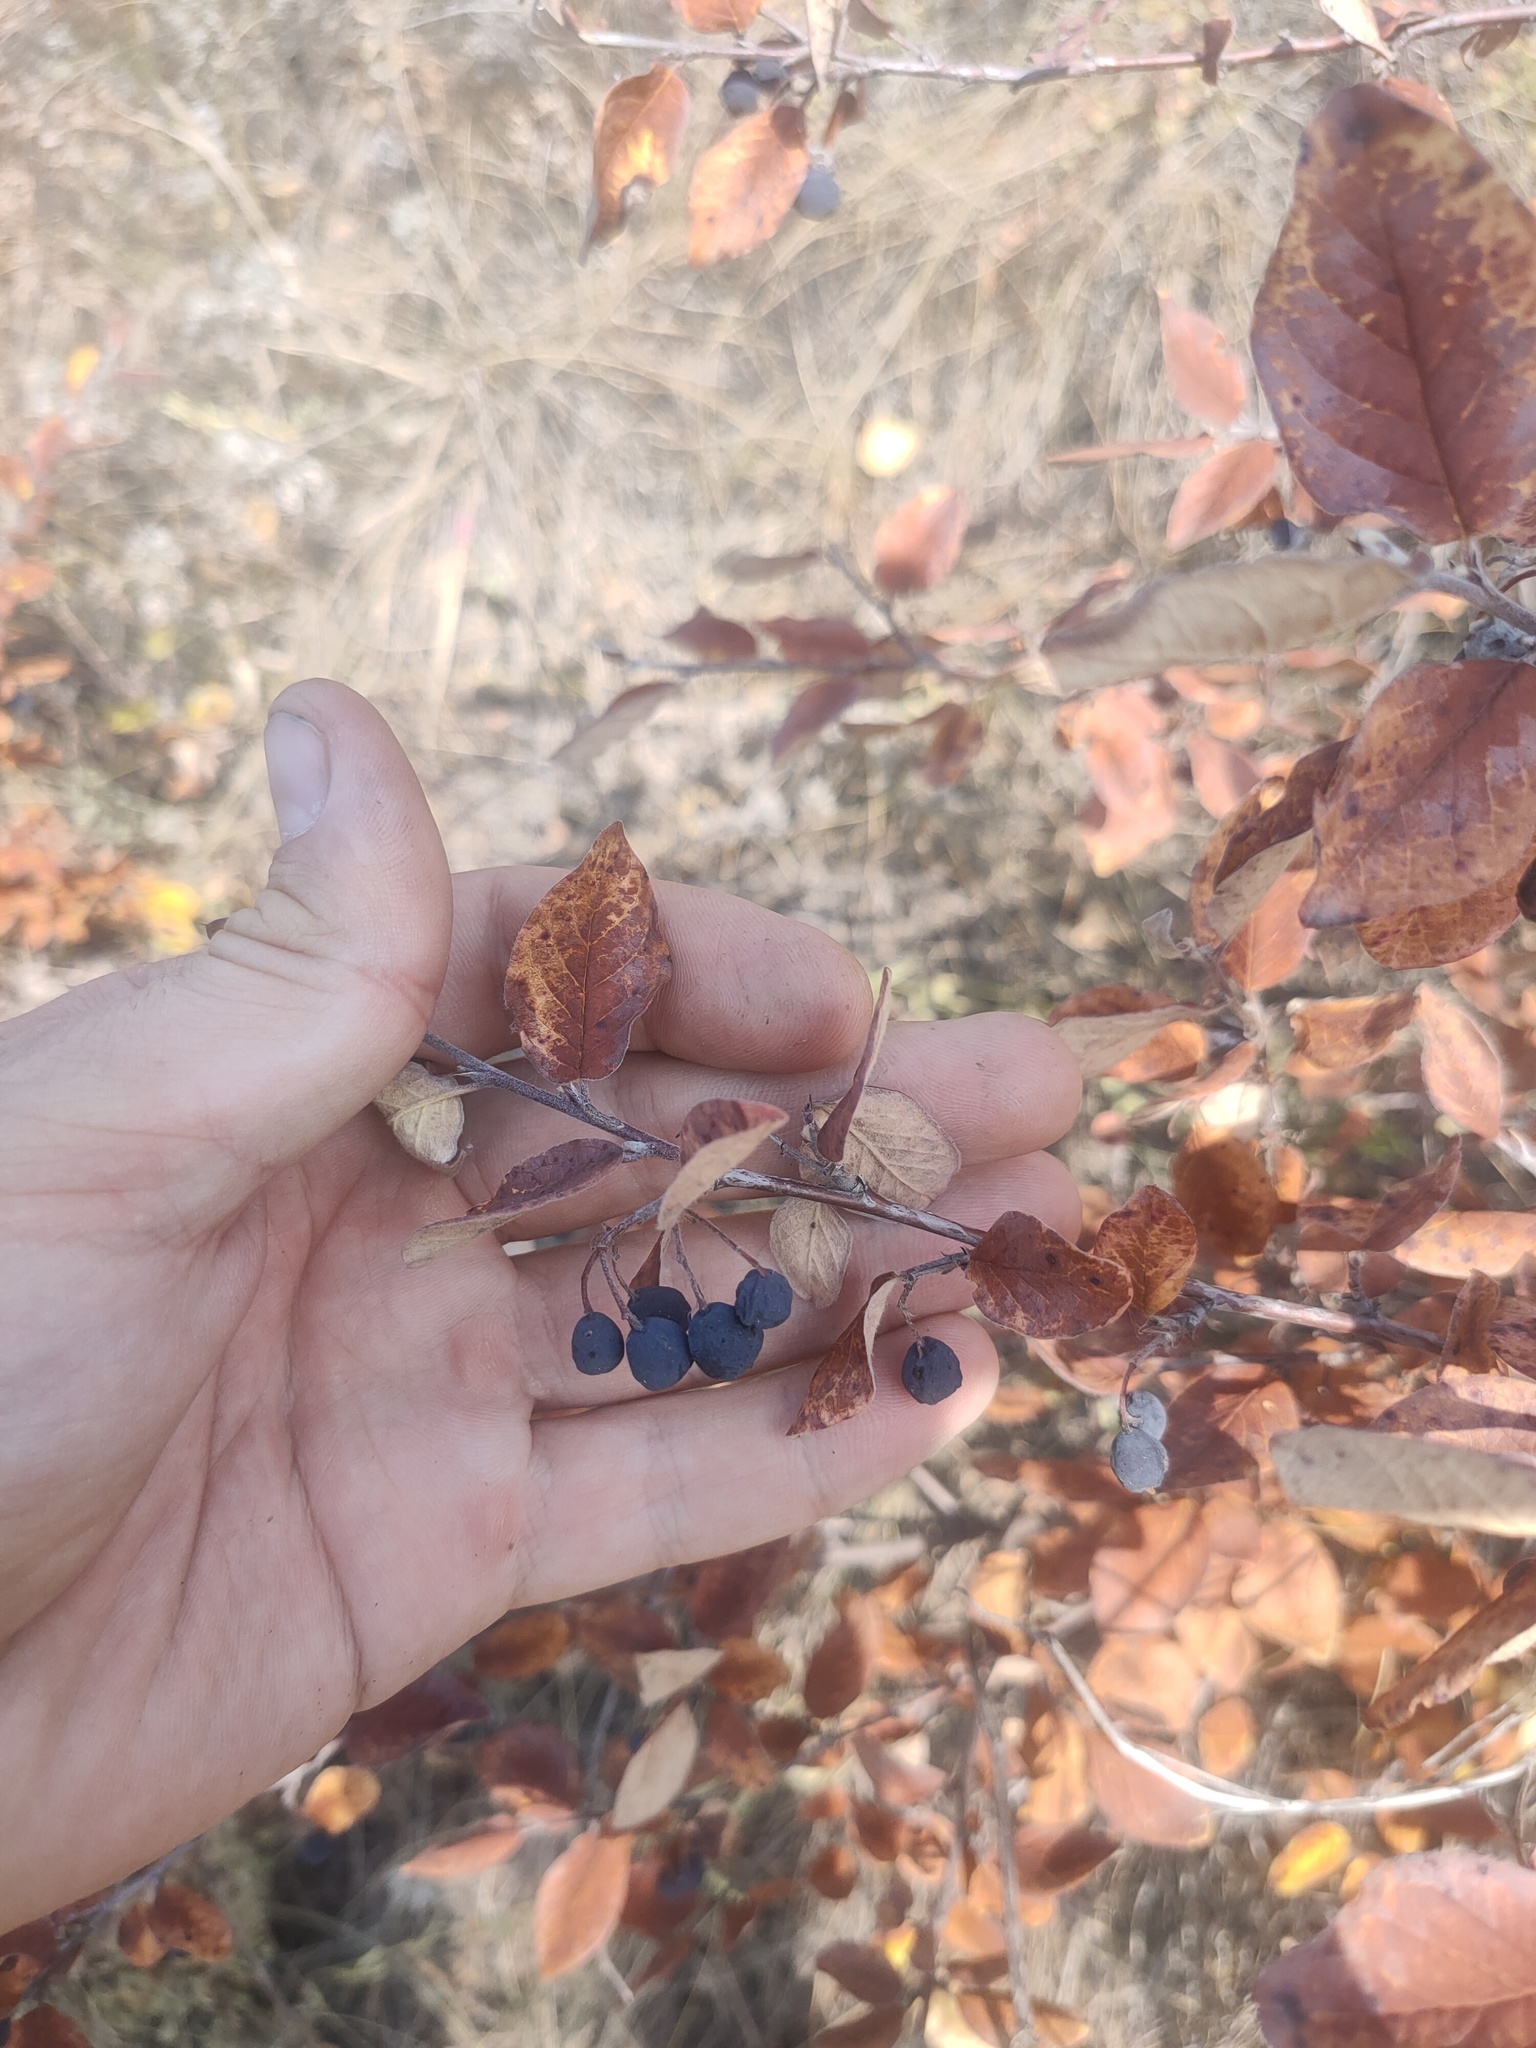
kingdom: Plantae
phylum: Tracheophyta
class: Magnoliopsida
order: Rosales
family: Rosaceae
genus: Cotoneaster
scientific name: Cotoneaster melanocarpus
